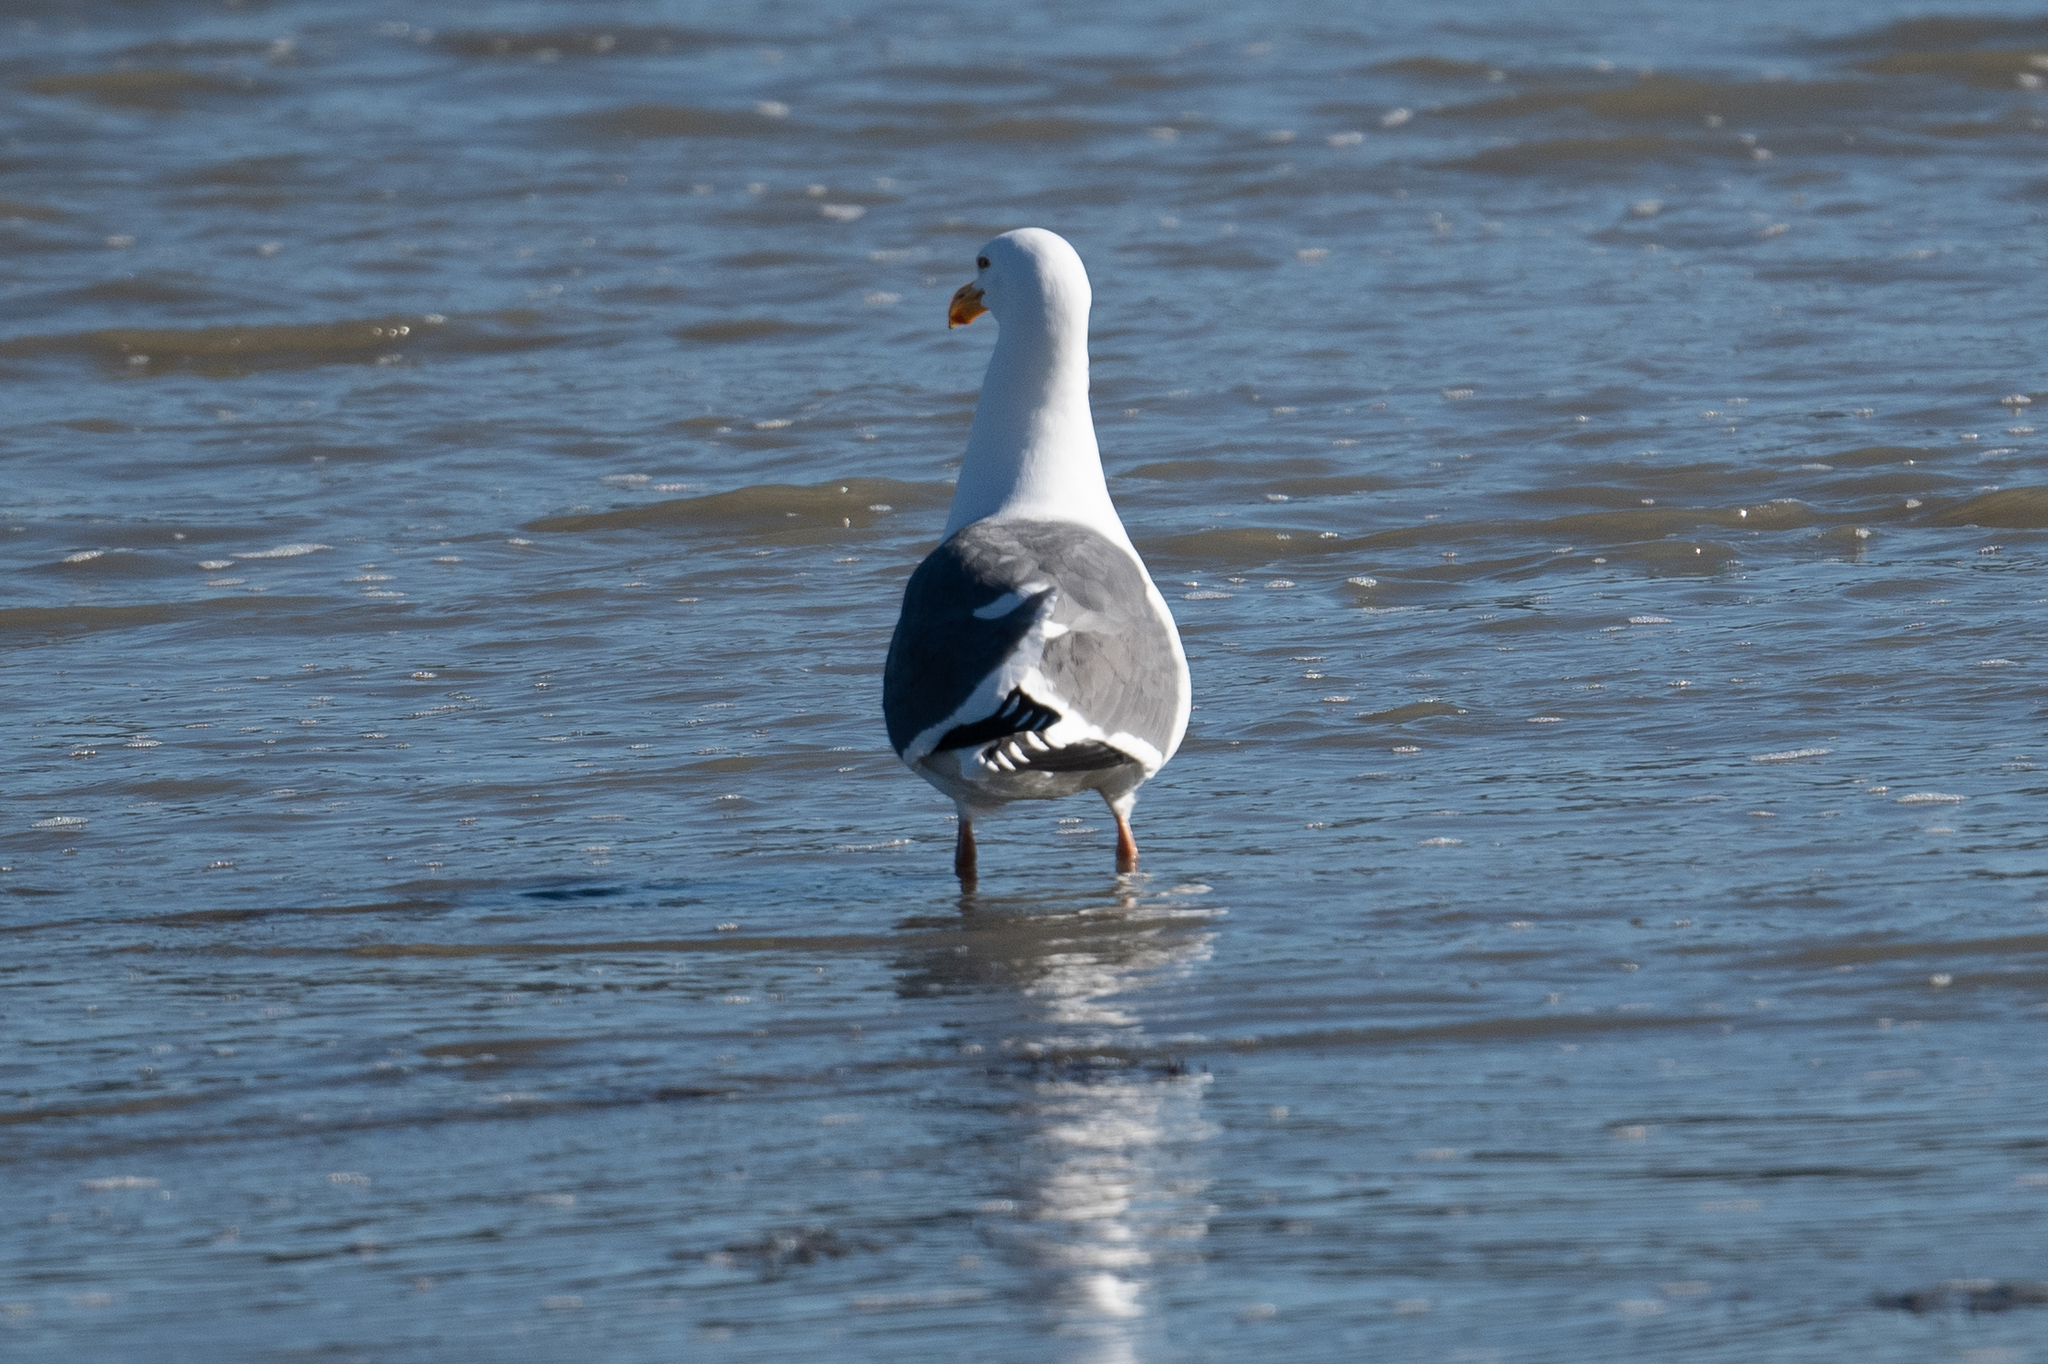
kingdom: Animalia
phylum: Chordata
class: Aves
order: Charadriiformes
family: Laridae
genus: Larus
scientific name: Larus occidentalis
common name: Western gull
